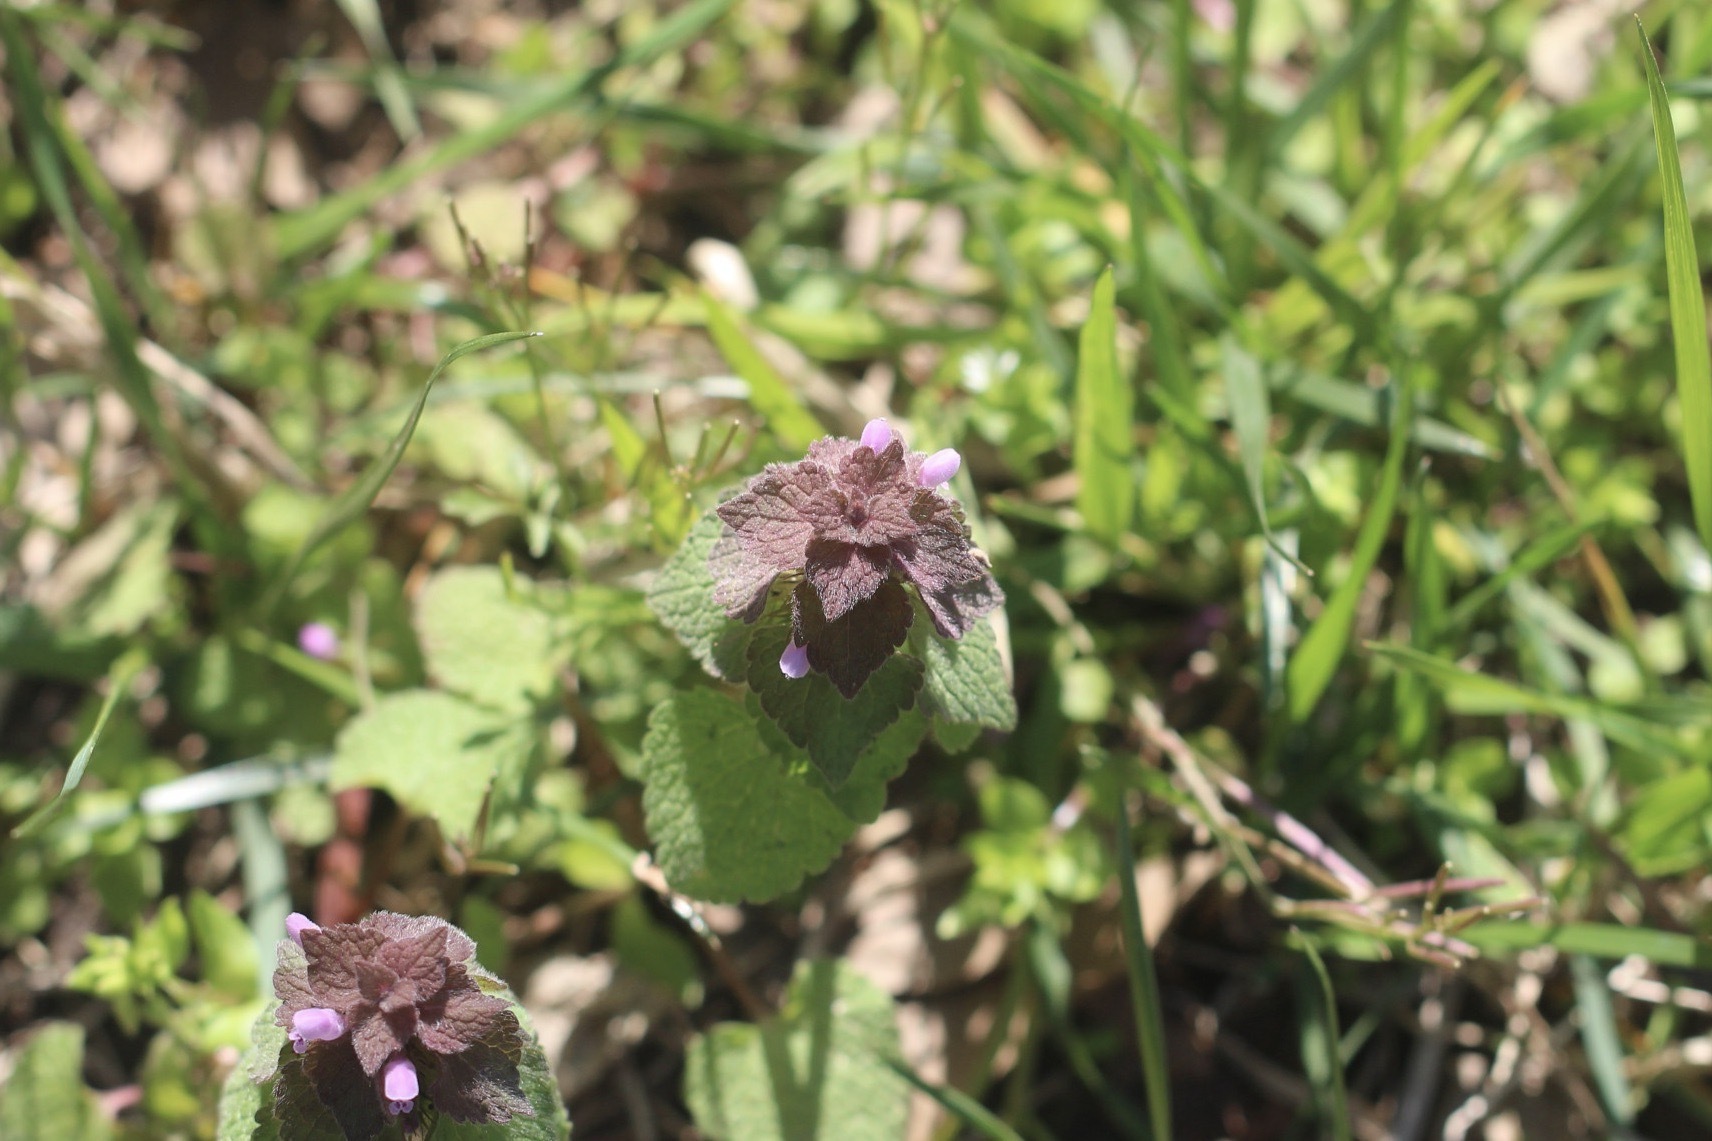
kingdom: Plantae
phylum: Tracheophyta
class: Magnoliopsida
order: Lamiales
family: Lamiaceae
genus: Lamium
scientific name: Lamium purpureum
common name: Red dead-nettle
